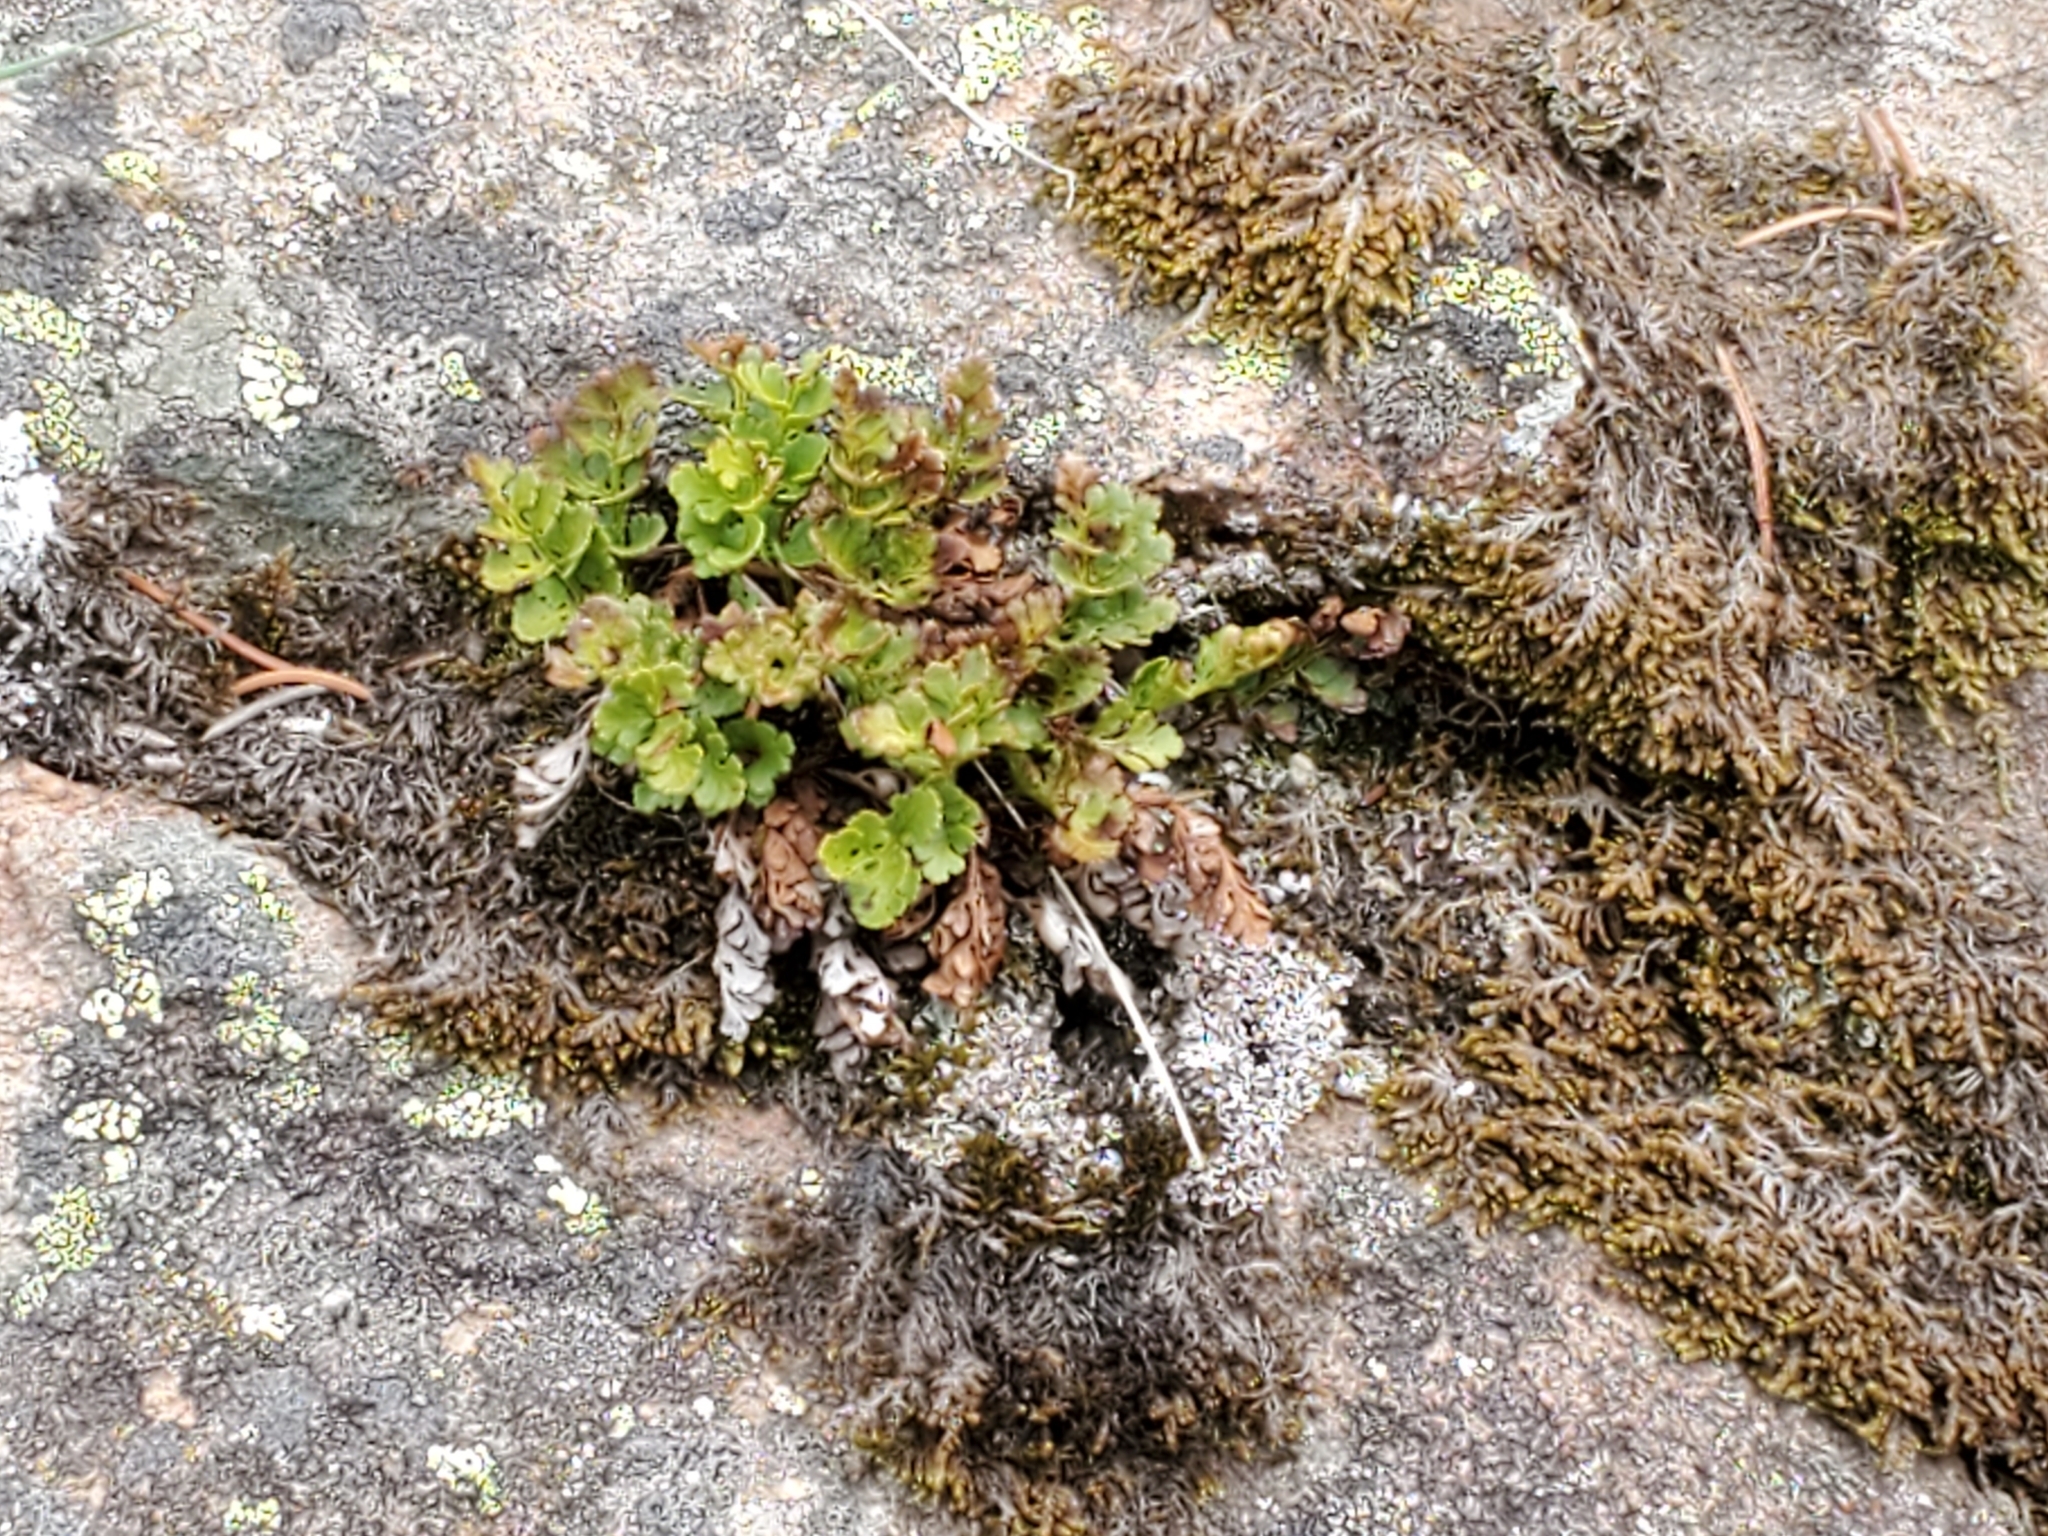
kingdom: Plantae
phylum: Tracheophyta
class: Polypodiopsida
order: Polypodiales
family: Pteridaceae
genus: Cryptogramma
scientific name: Cryptogramma acrostichoides
